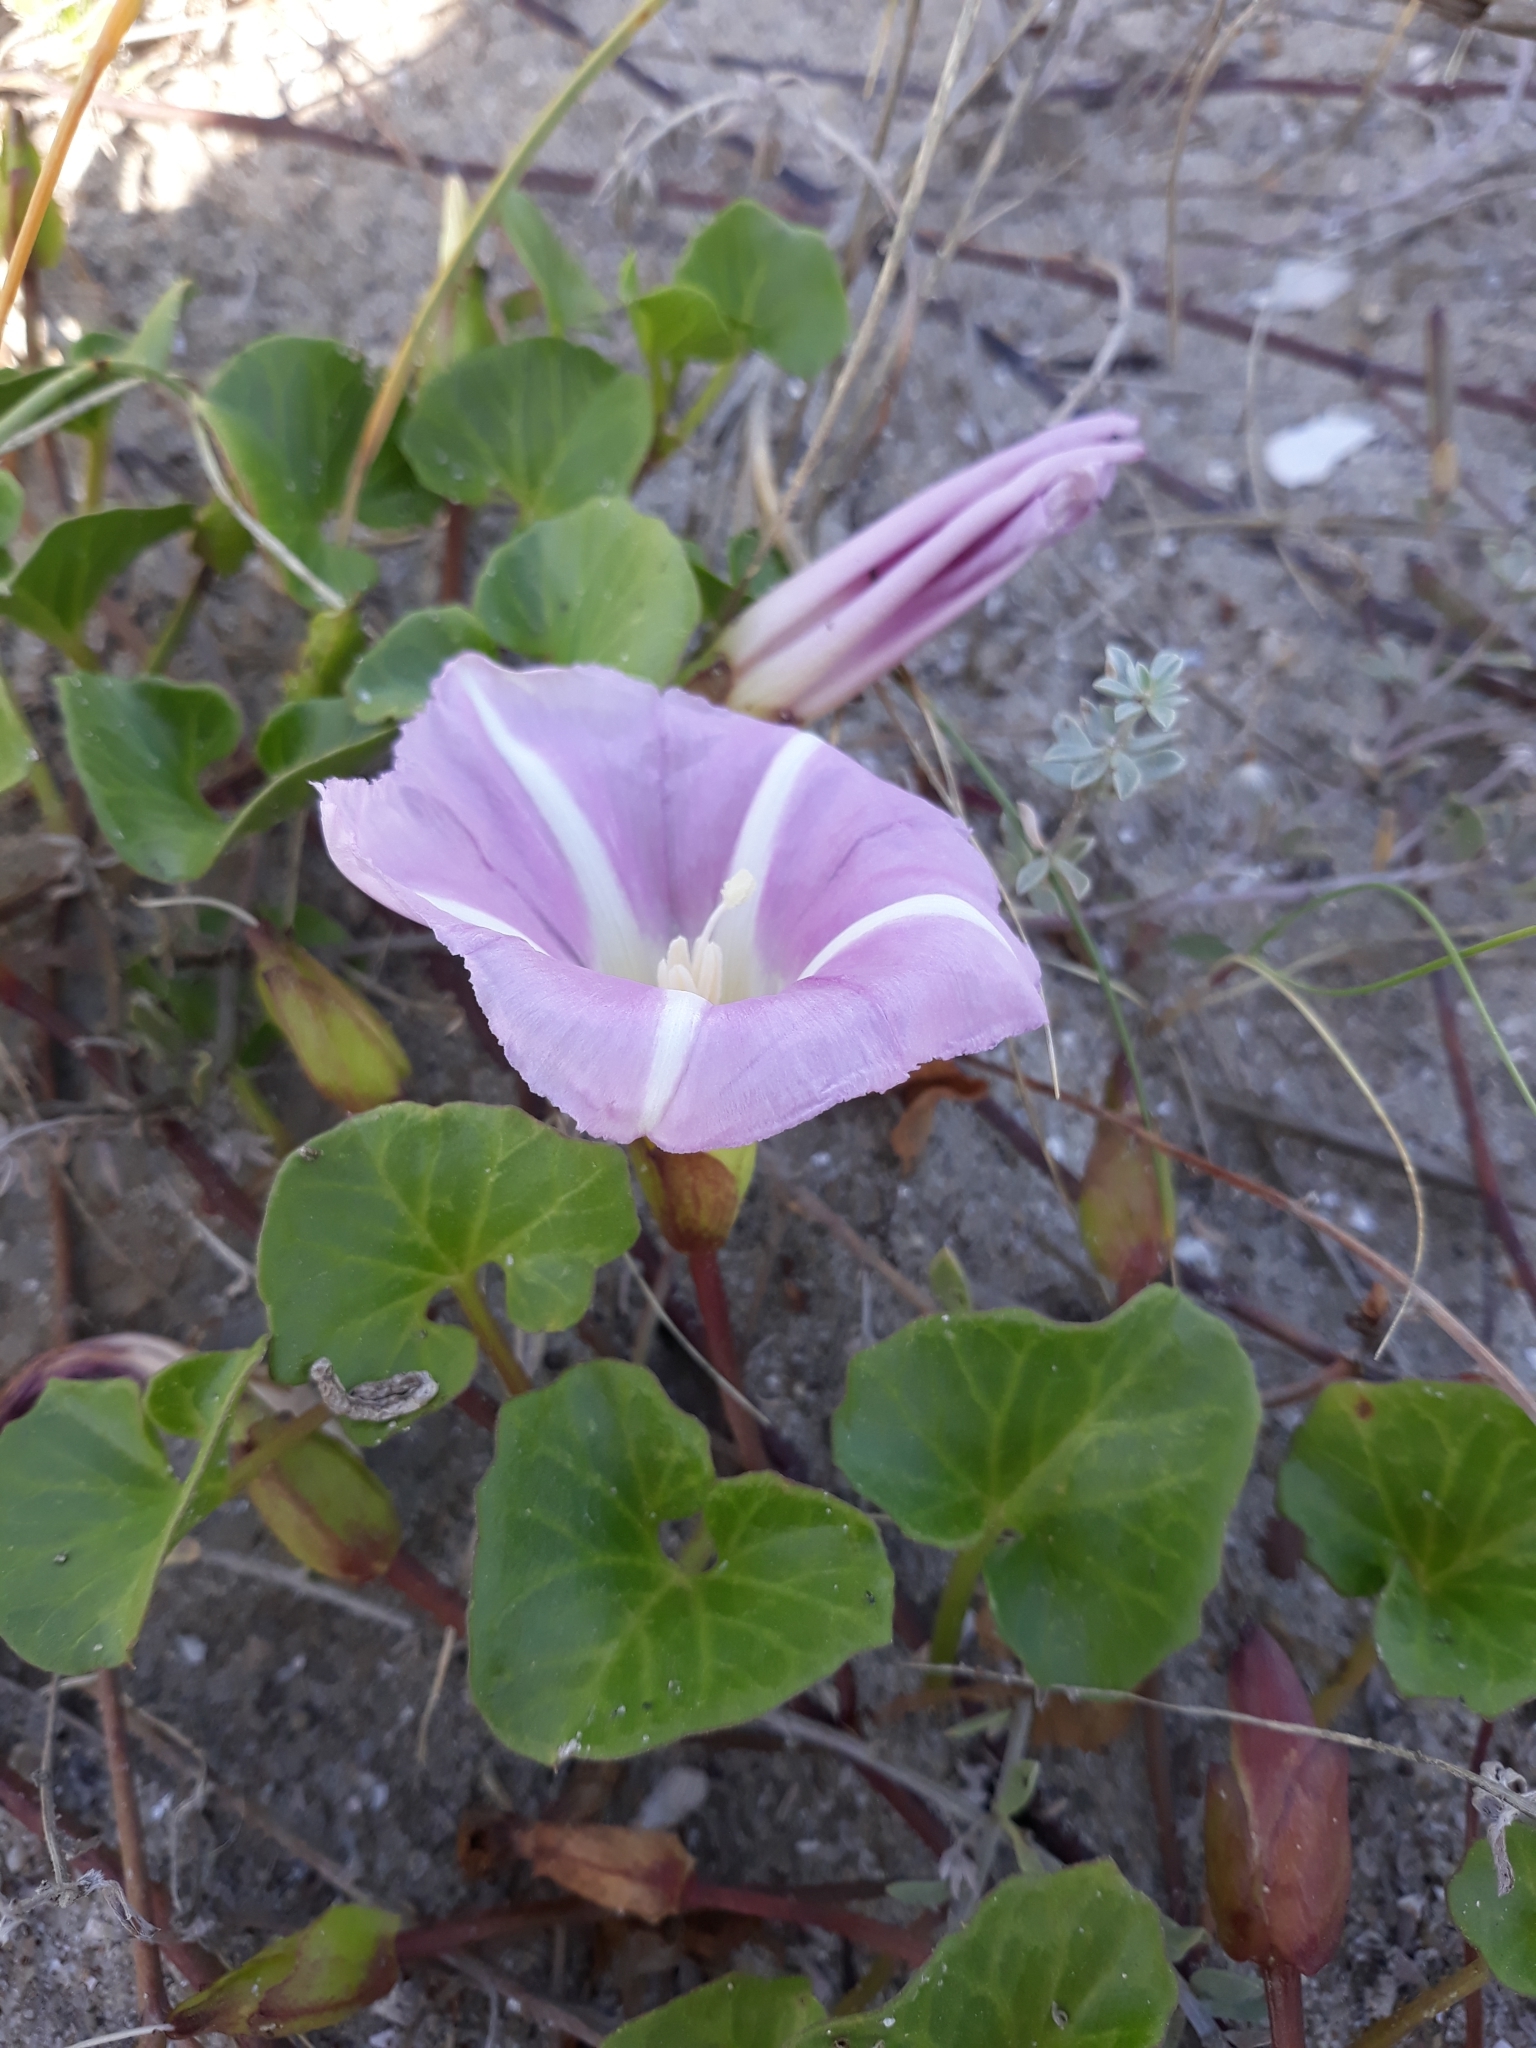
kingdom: Plantae
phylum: Tracheophyta
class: Magnoliopsida
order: Solanales
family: Convolvulaceae
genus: Calystegia
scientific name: Calystegia soldanella
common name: Sea bindweed
